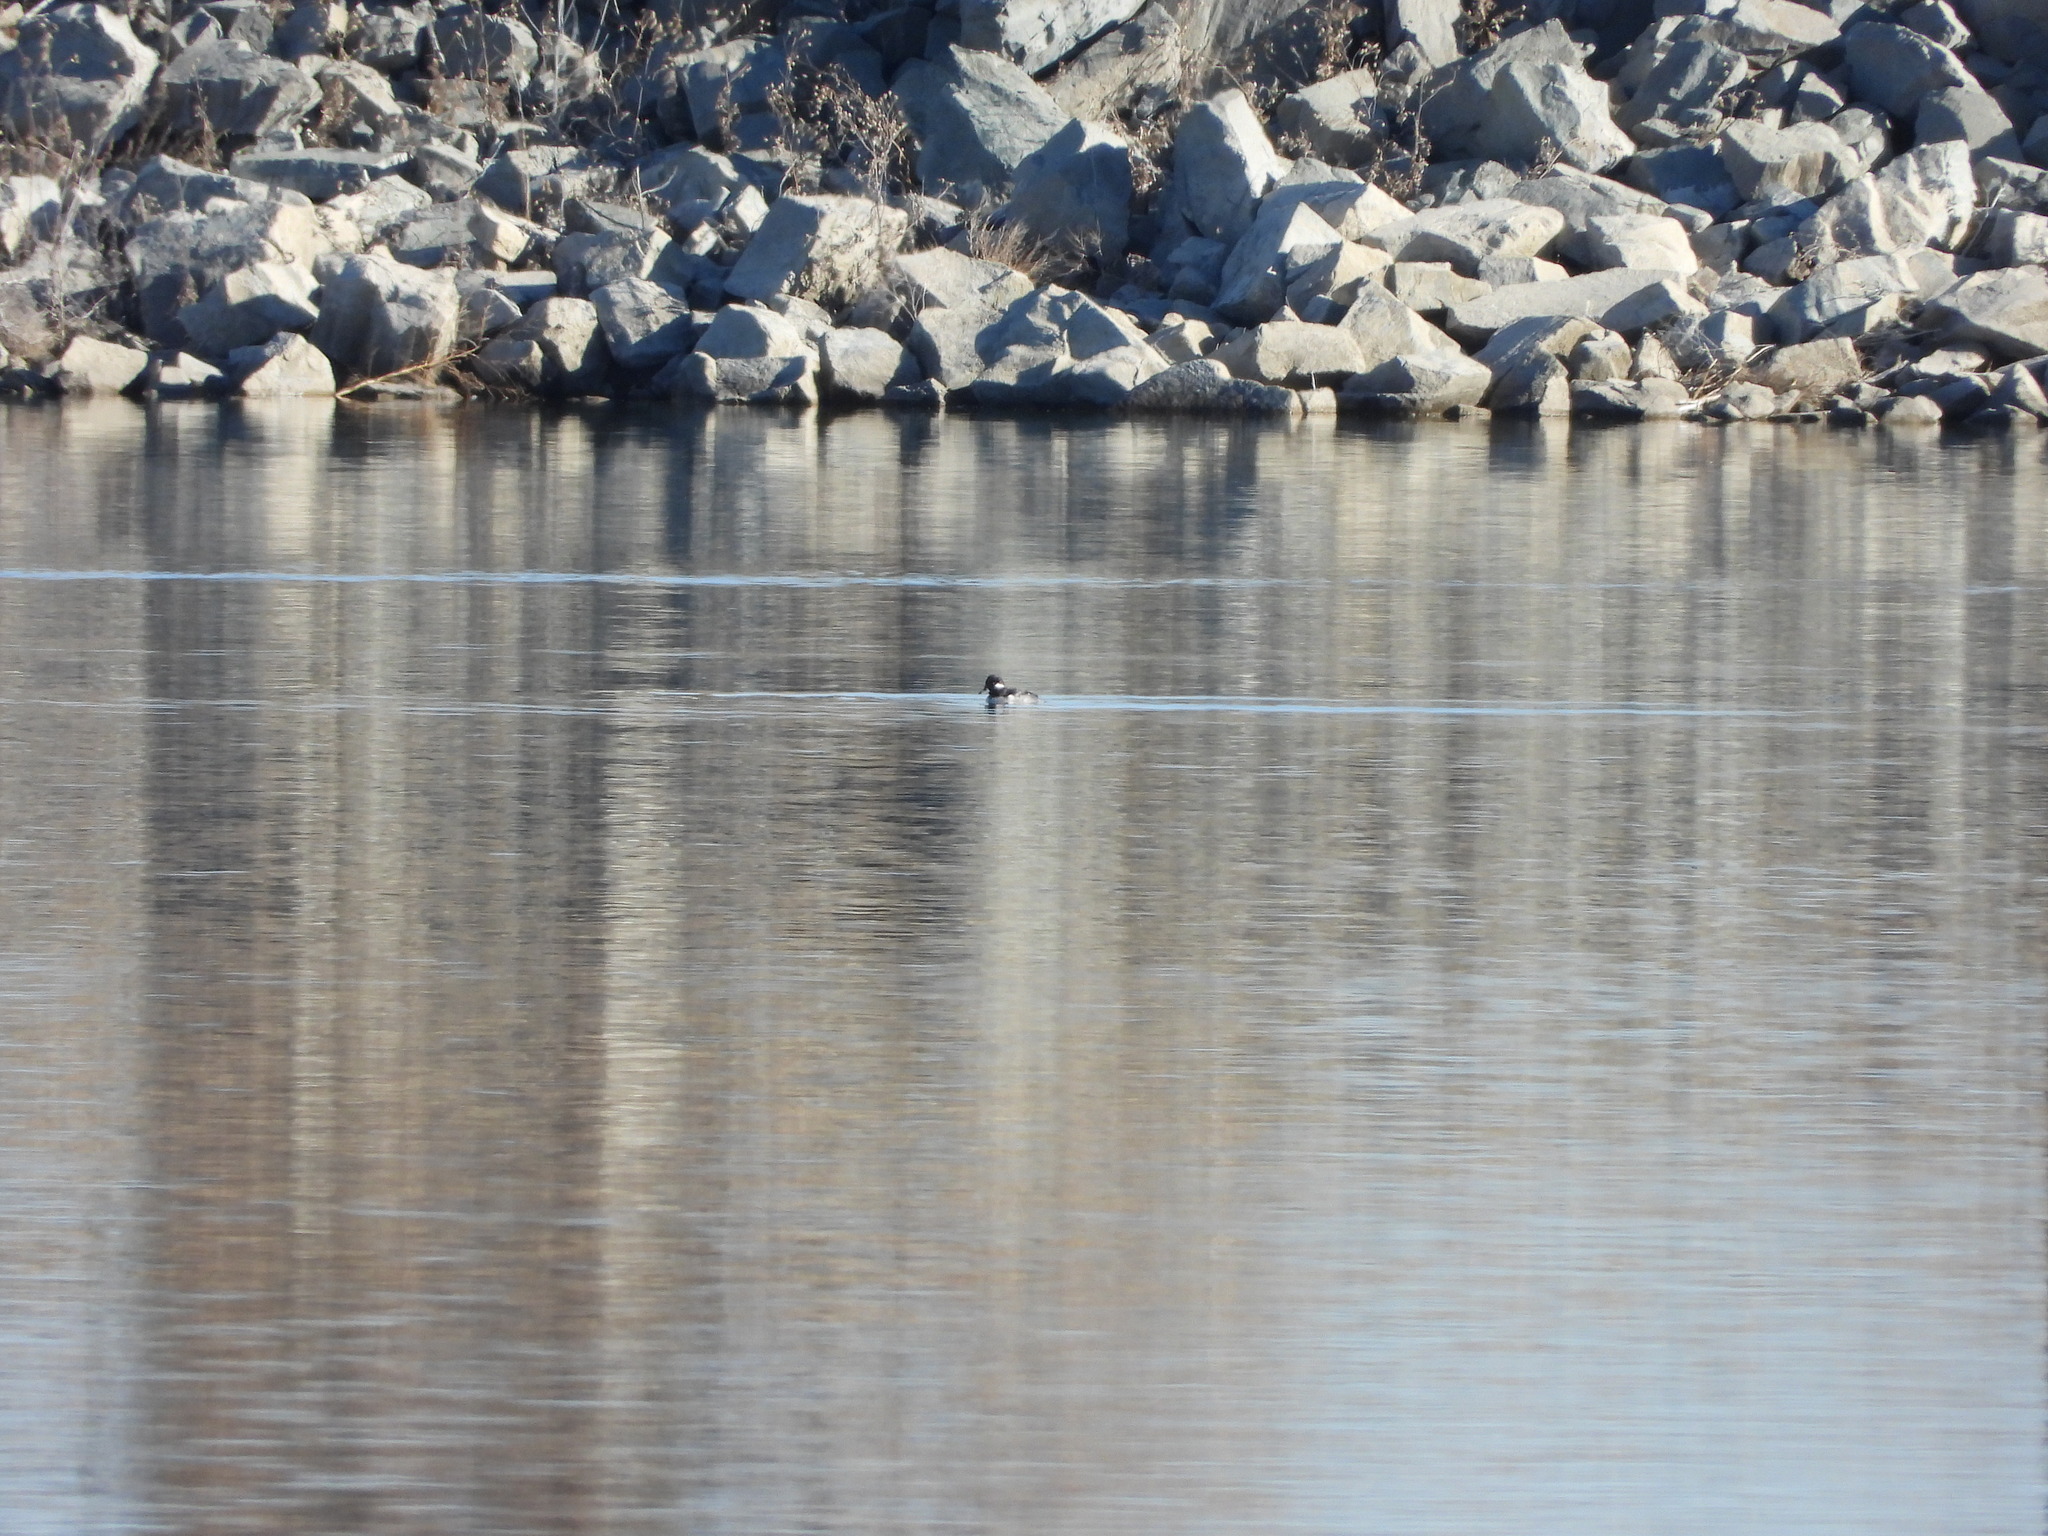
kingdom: Animalia
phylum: Chordata
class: Aves
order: Anseriformes
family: Anatidae
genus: Bucephala
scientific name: Bucephala albeola
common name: Bufflehead
